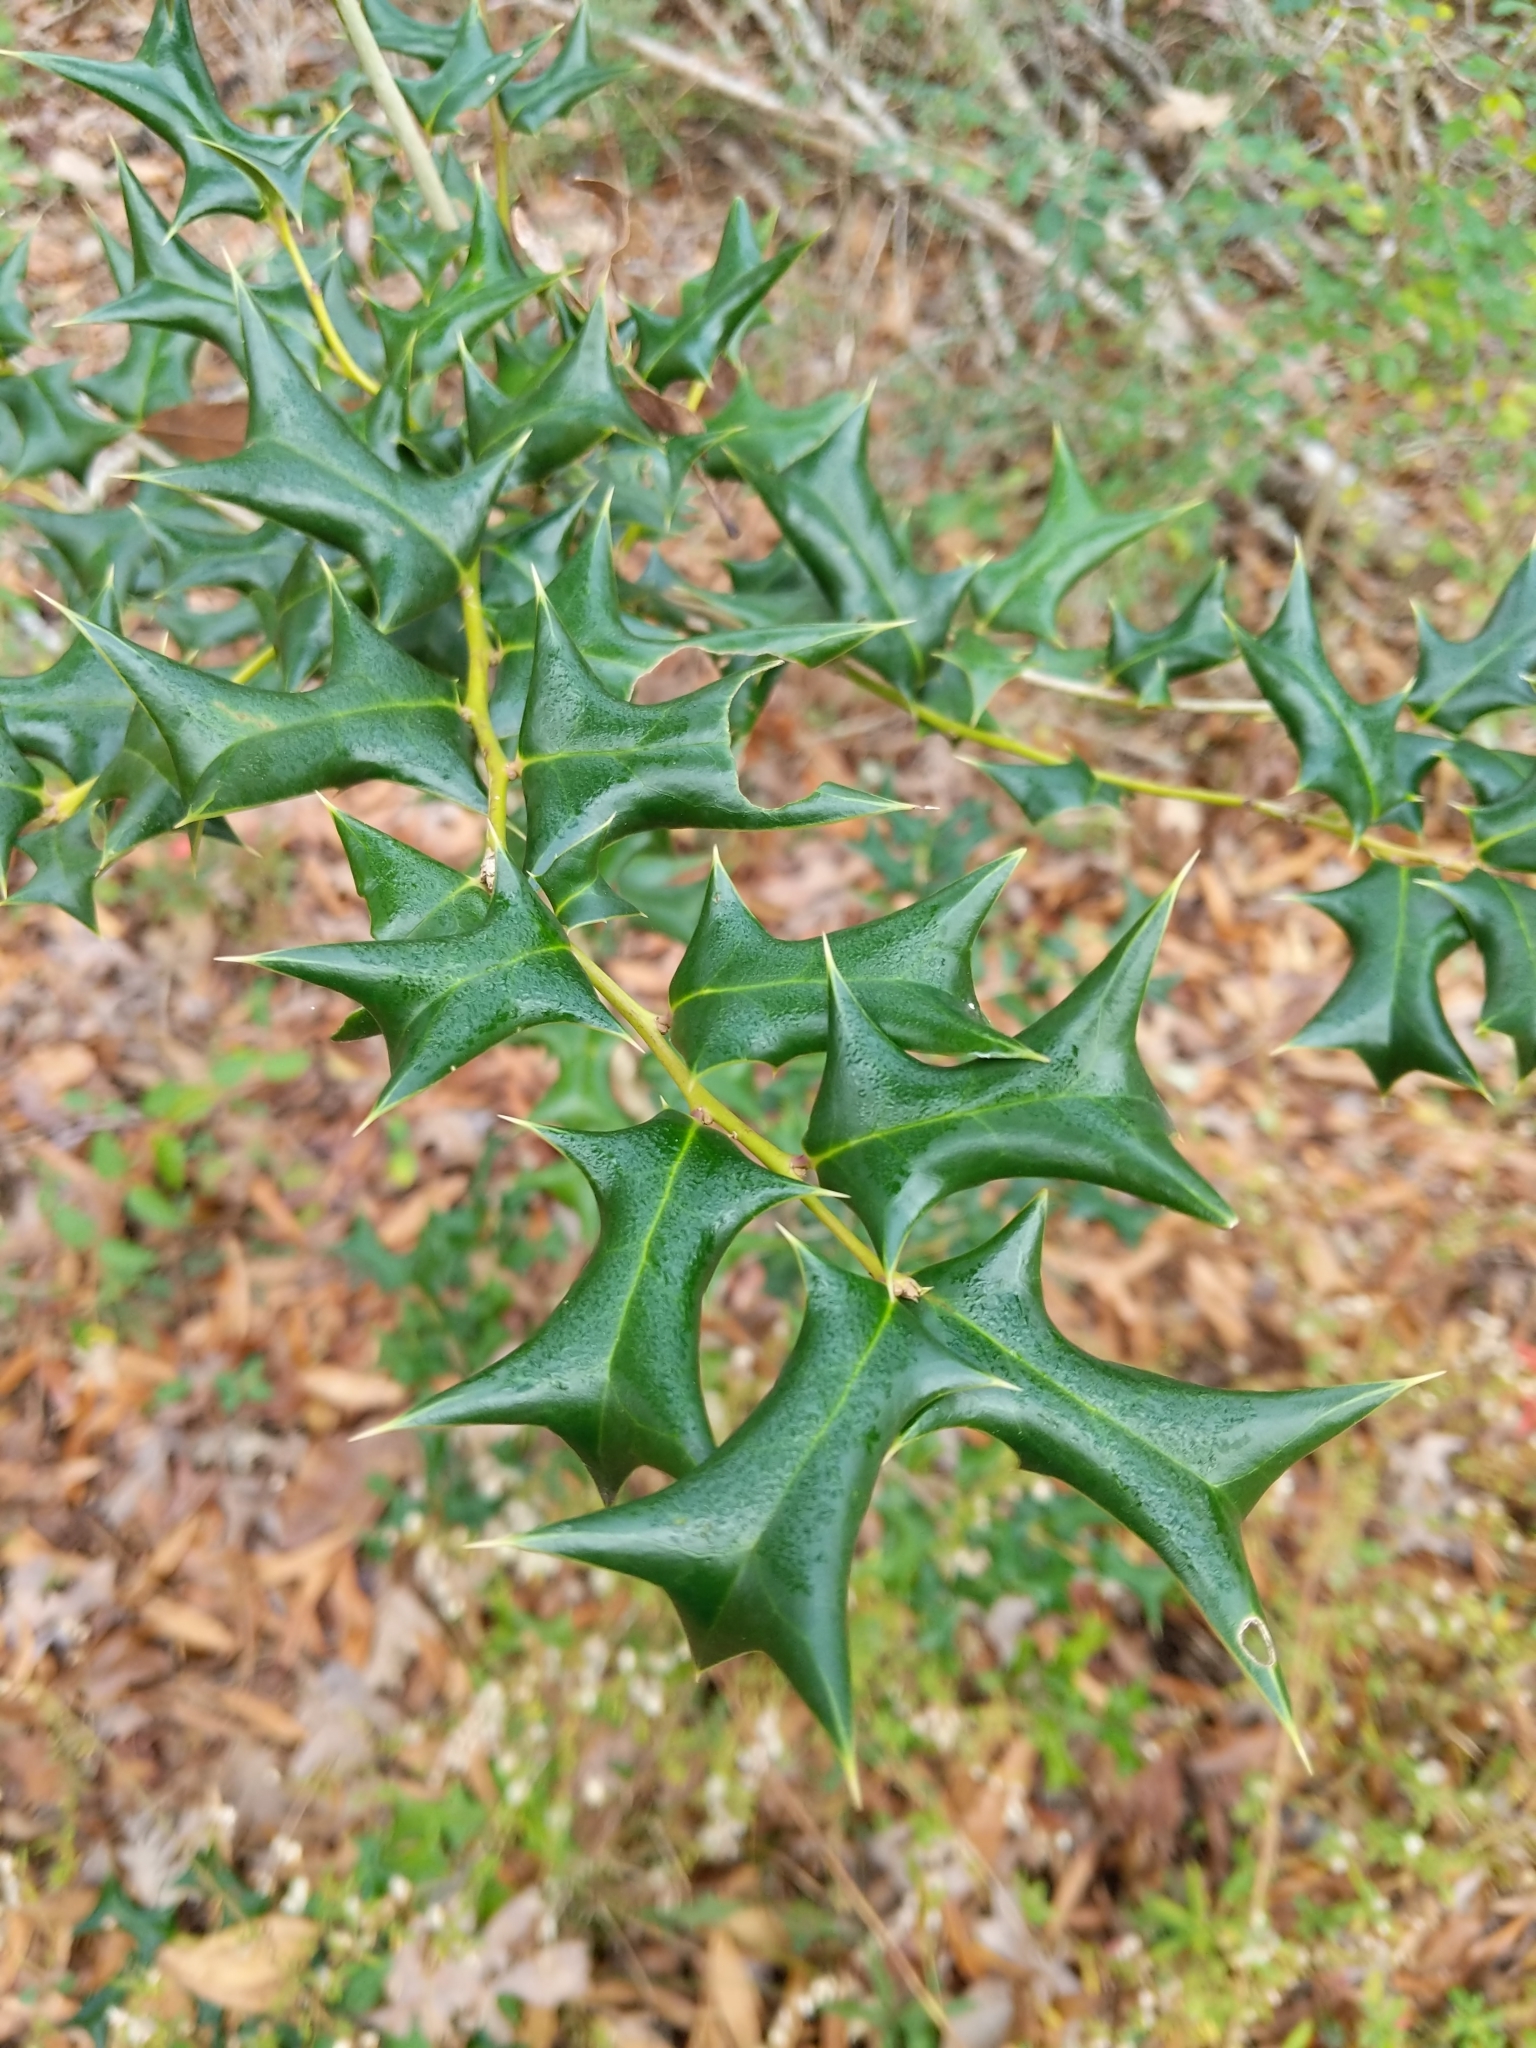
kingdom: Plantae
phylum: Tracheophyta
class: Magnoliopsida
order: Aquifoliales
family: Aquifoliaceae
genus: Ilex
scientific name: Ilex cornuta
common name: Chinese holly
